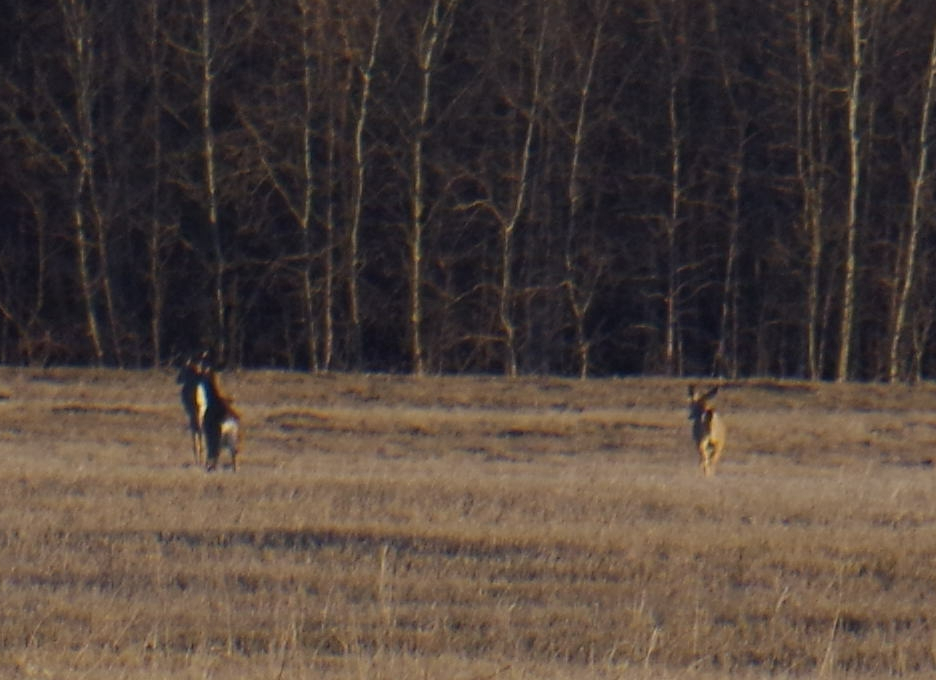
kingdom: Animalia
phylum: Chordata
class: Mammalia
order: Artiodactyla
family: Cervidae
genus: Odocoileus
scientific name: Odocoileus virginianus
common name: White-tailed deer
